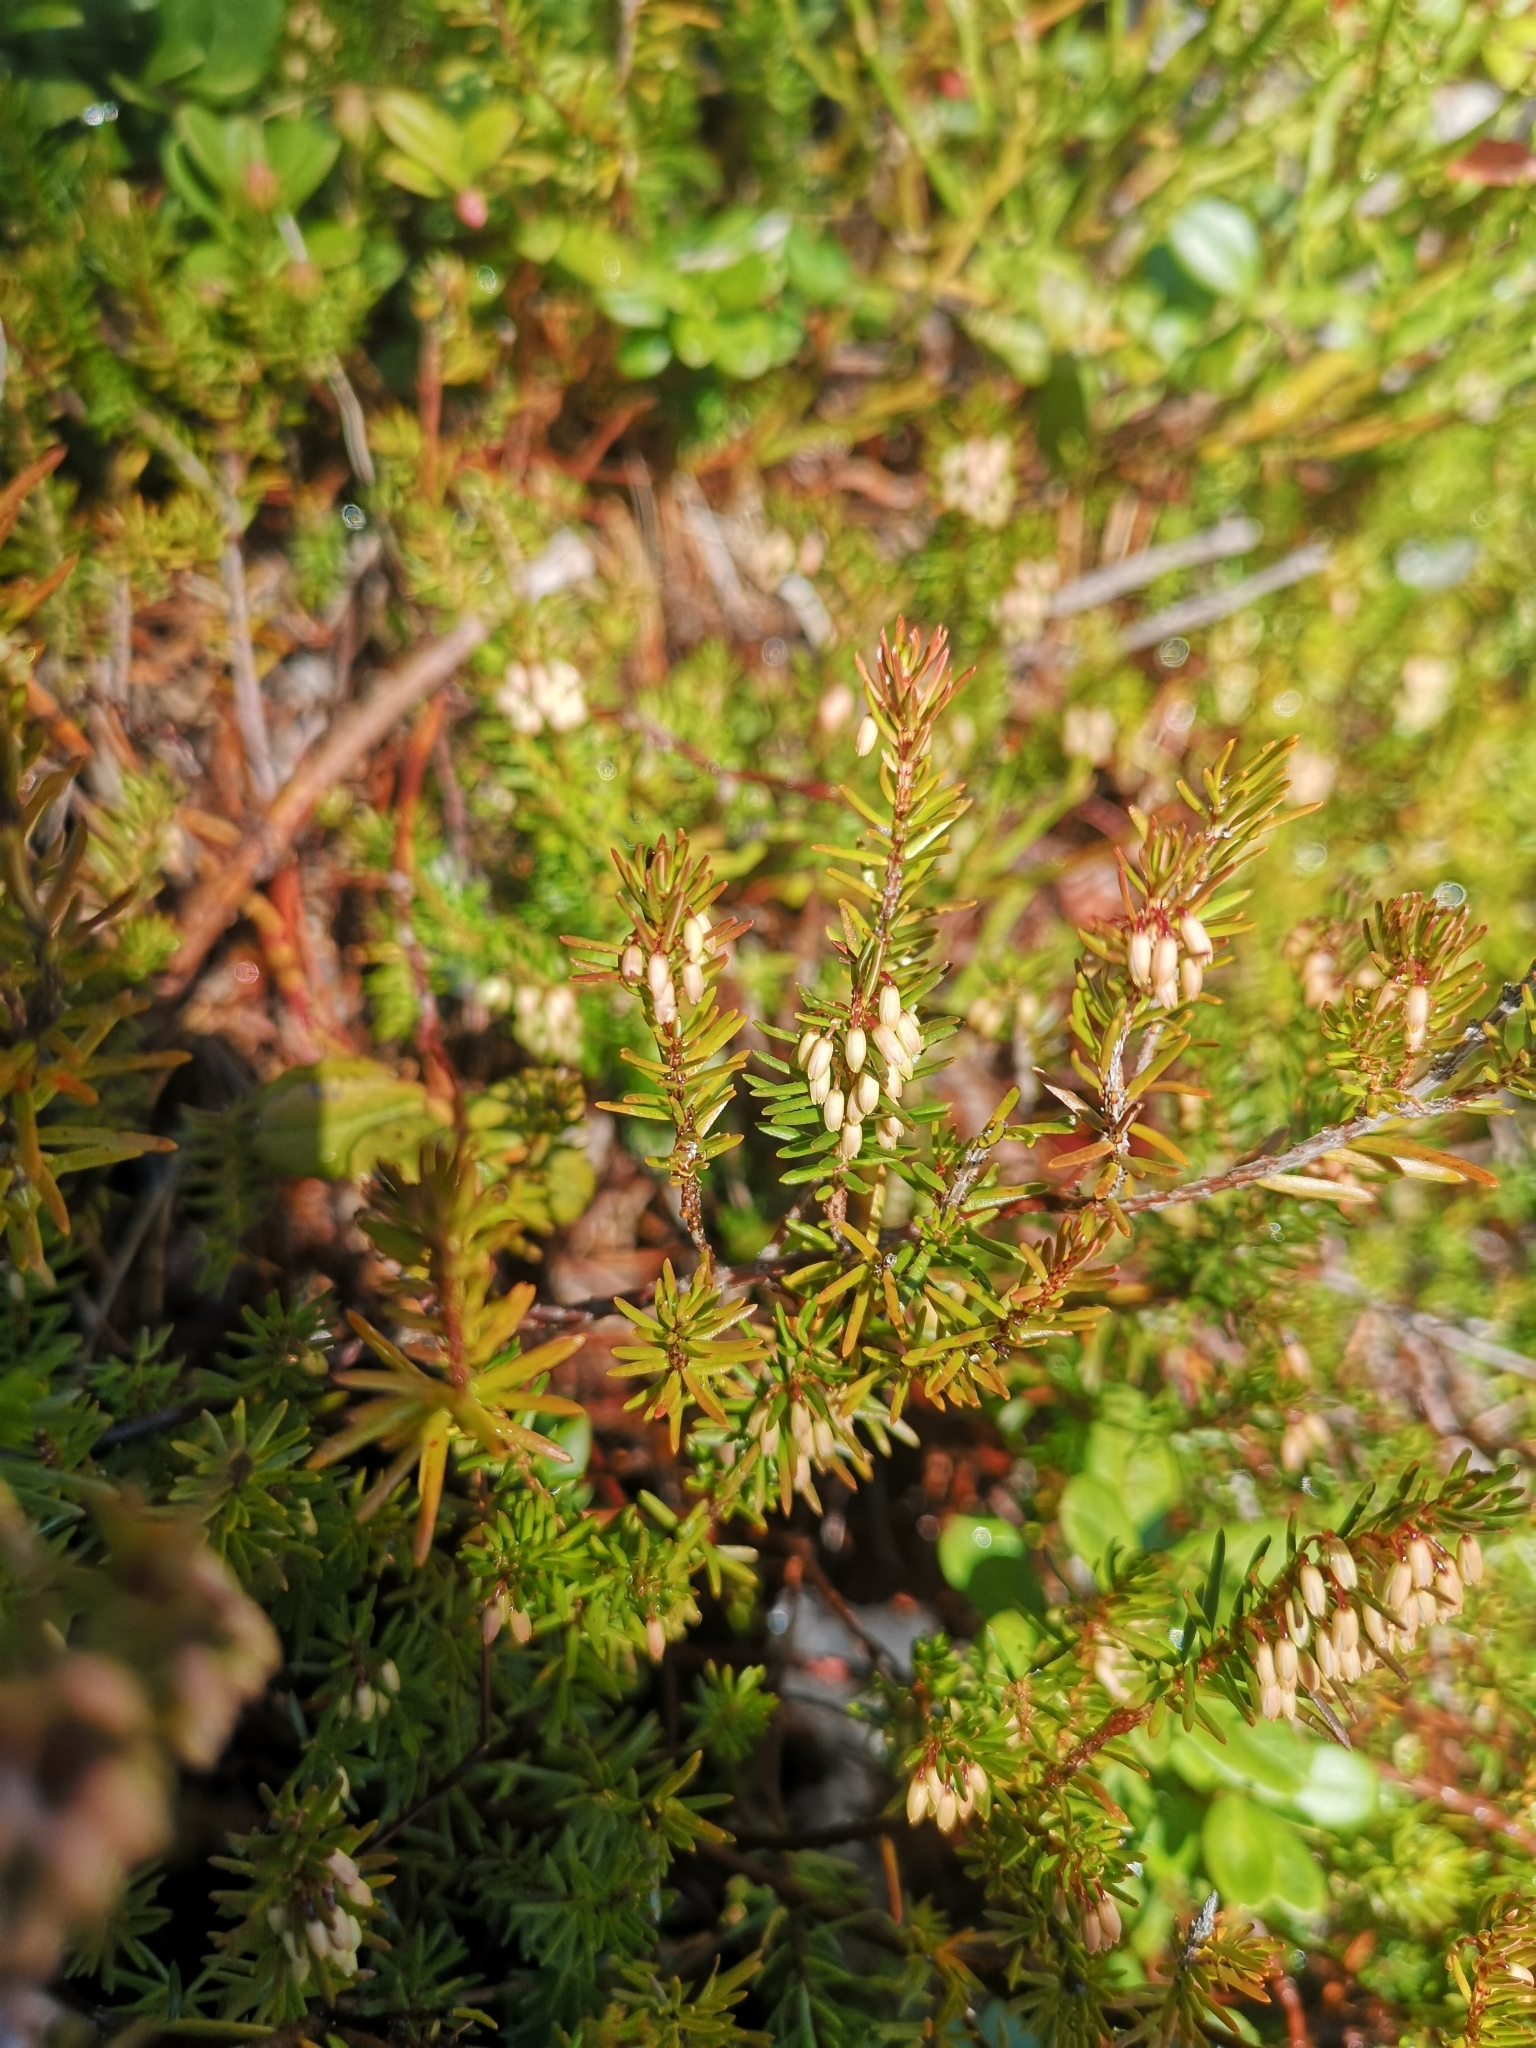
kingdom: Plantae
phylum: Tracheophyta
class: Magnoliopsida
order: Ericales
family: Ericaceae
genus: Erica
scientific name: Erica carnea
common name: Winter heath
